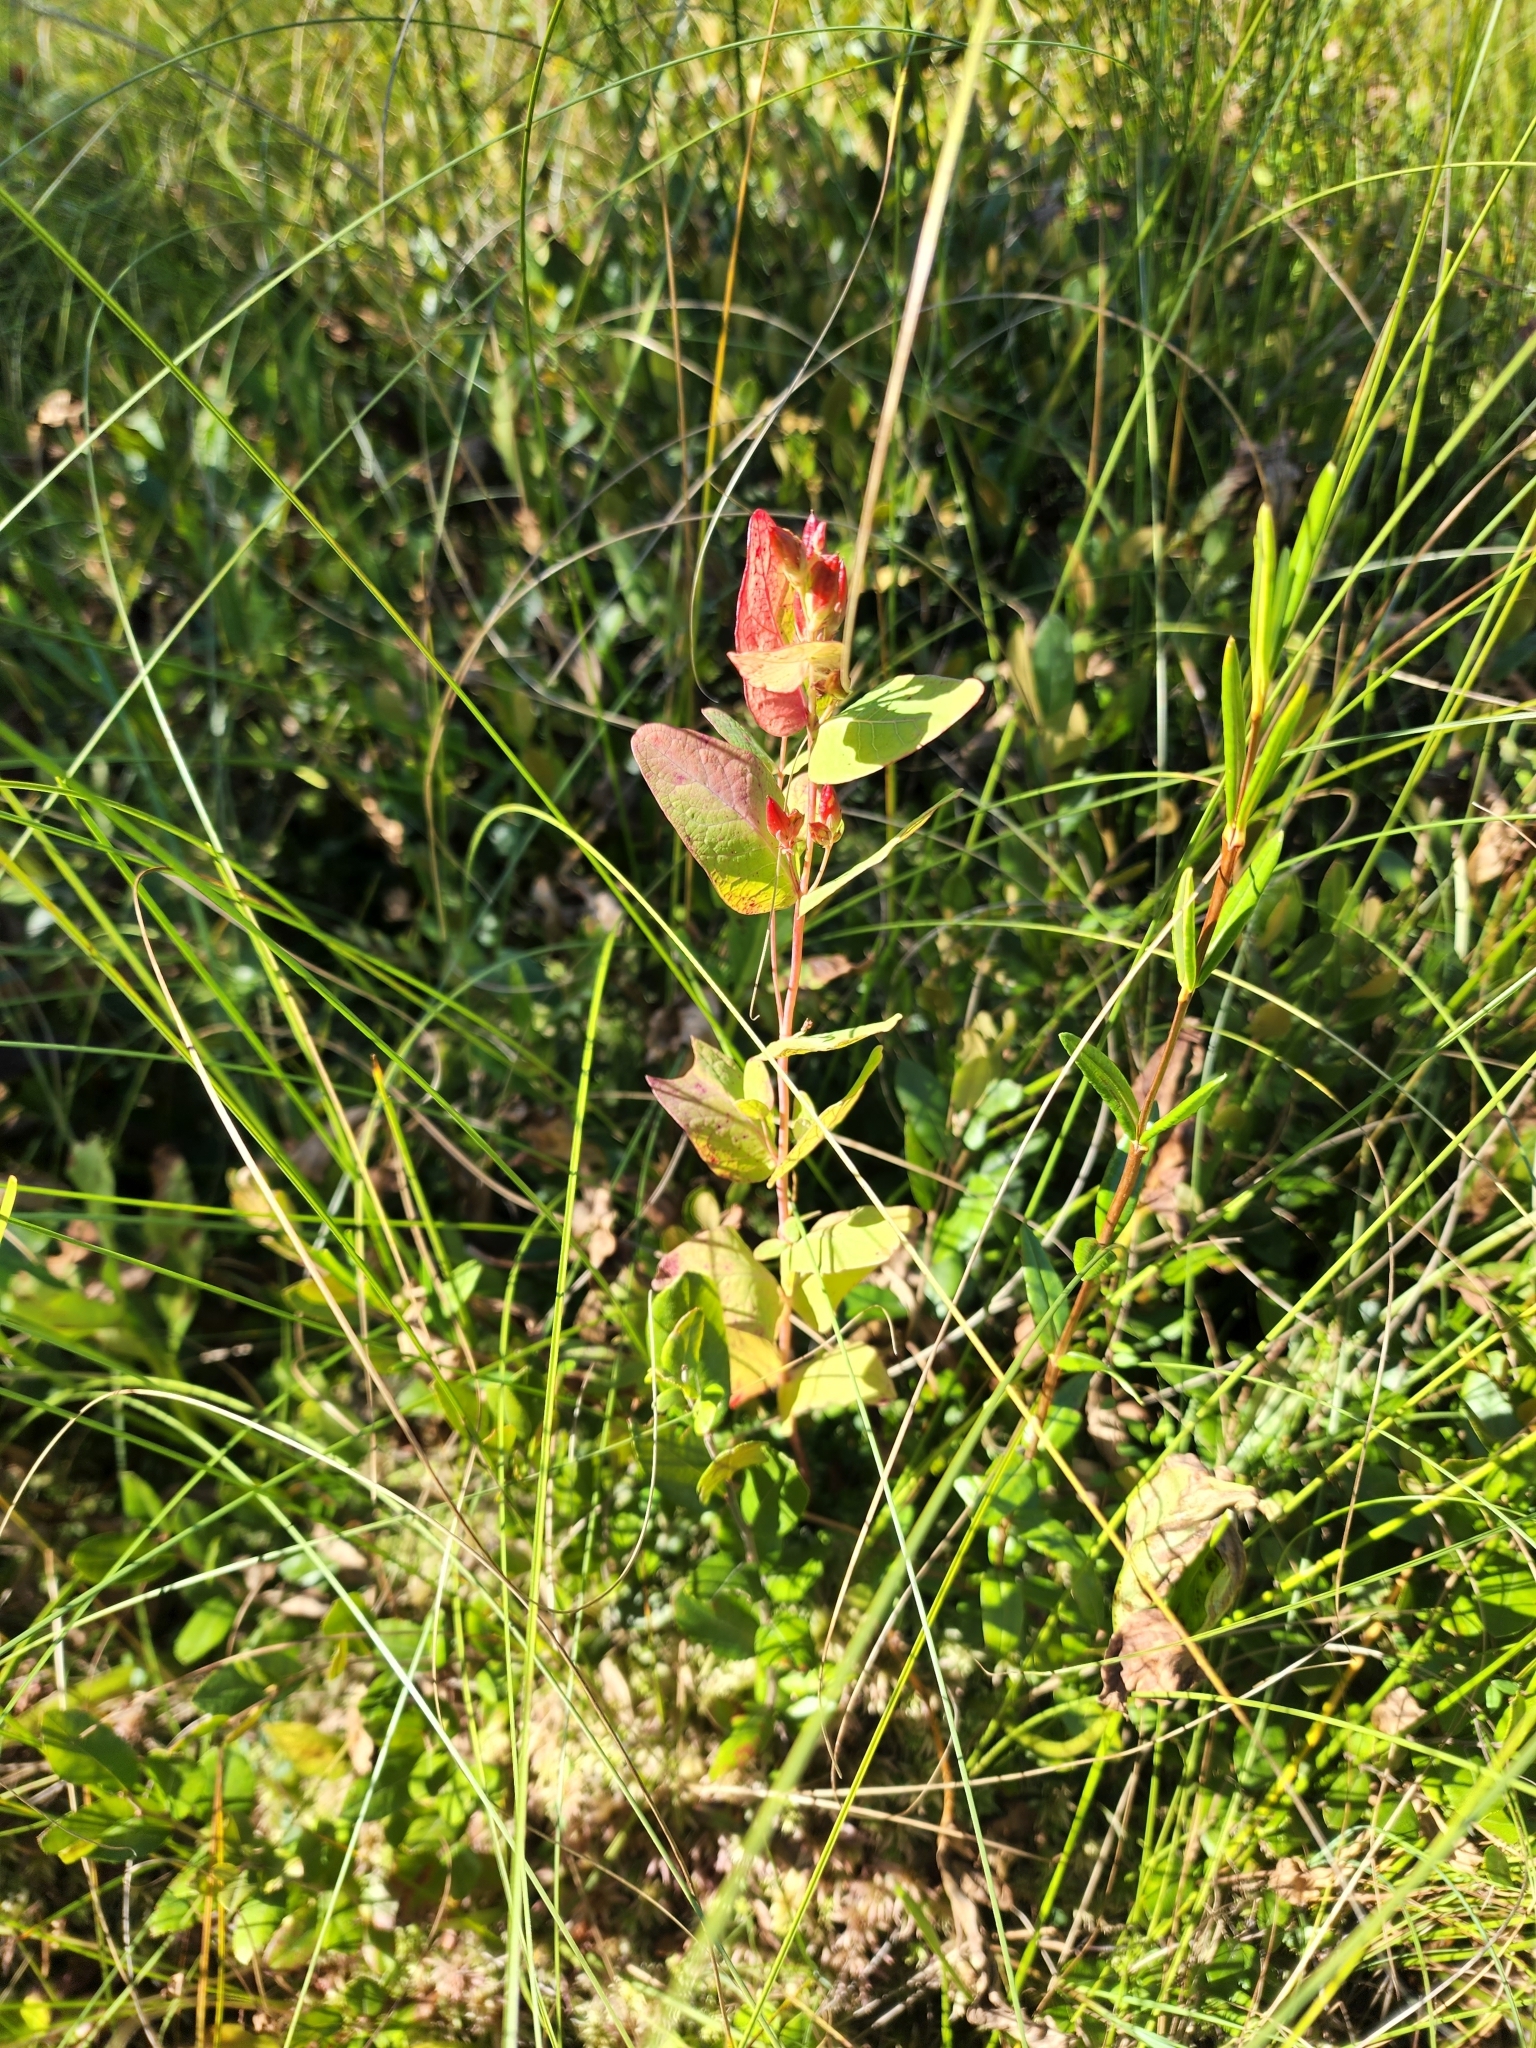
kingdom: Plantae
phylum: Tracheophyta
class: Magnoliopsida
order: Malpighiales
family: Hypericaceae
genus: Triadenum
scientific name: Triadenum fraseri
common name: Fraser's marsh st. johnswort
